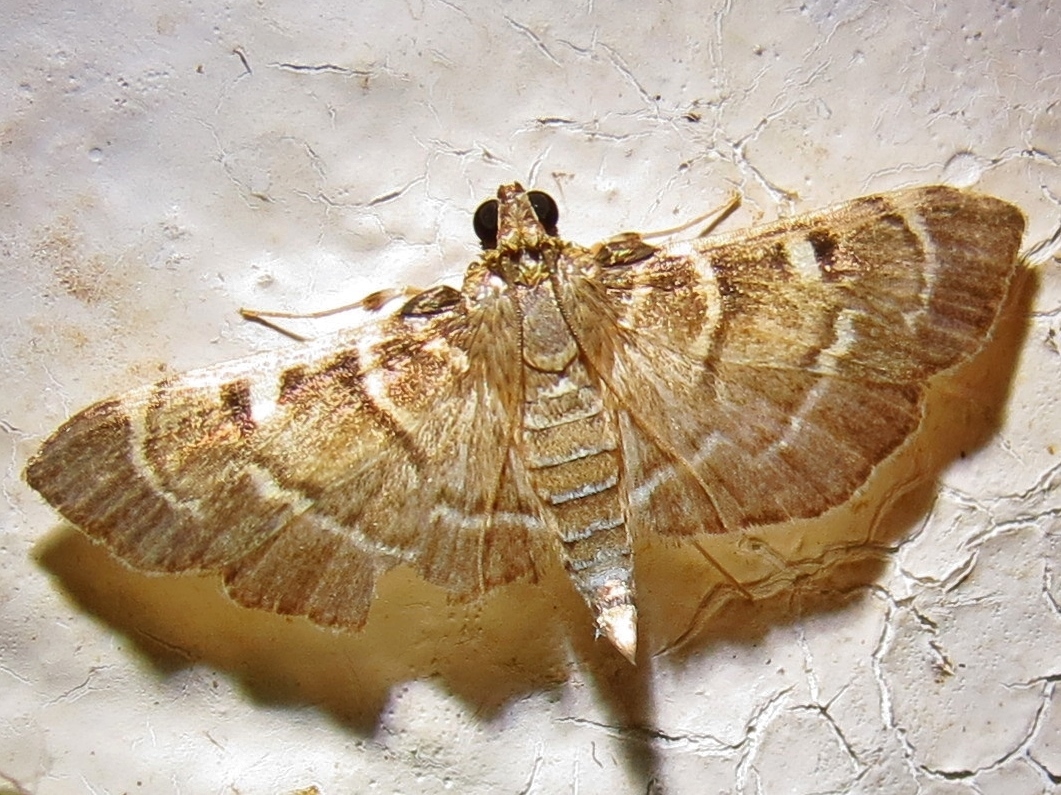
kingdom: Animalia
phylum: Arthropoda
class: Insecta
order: Lepidoptera
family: Crambidae
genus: Cryptobotys
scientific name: Cryptobotys zoilusalis
